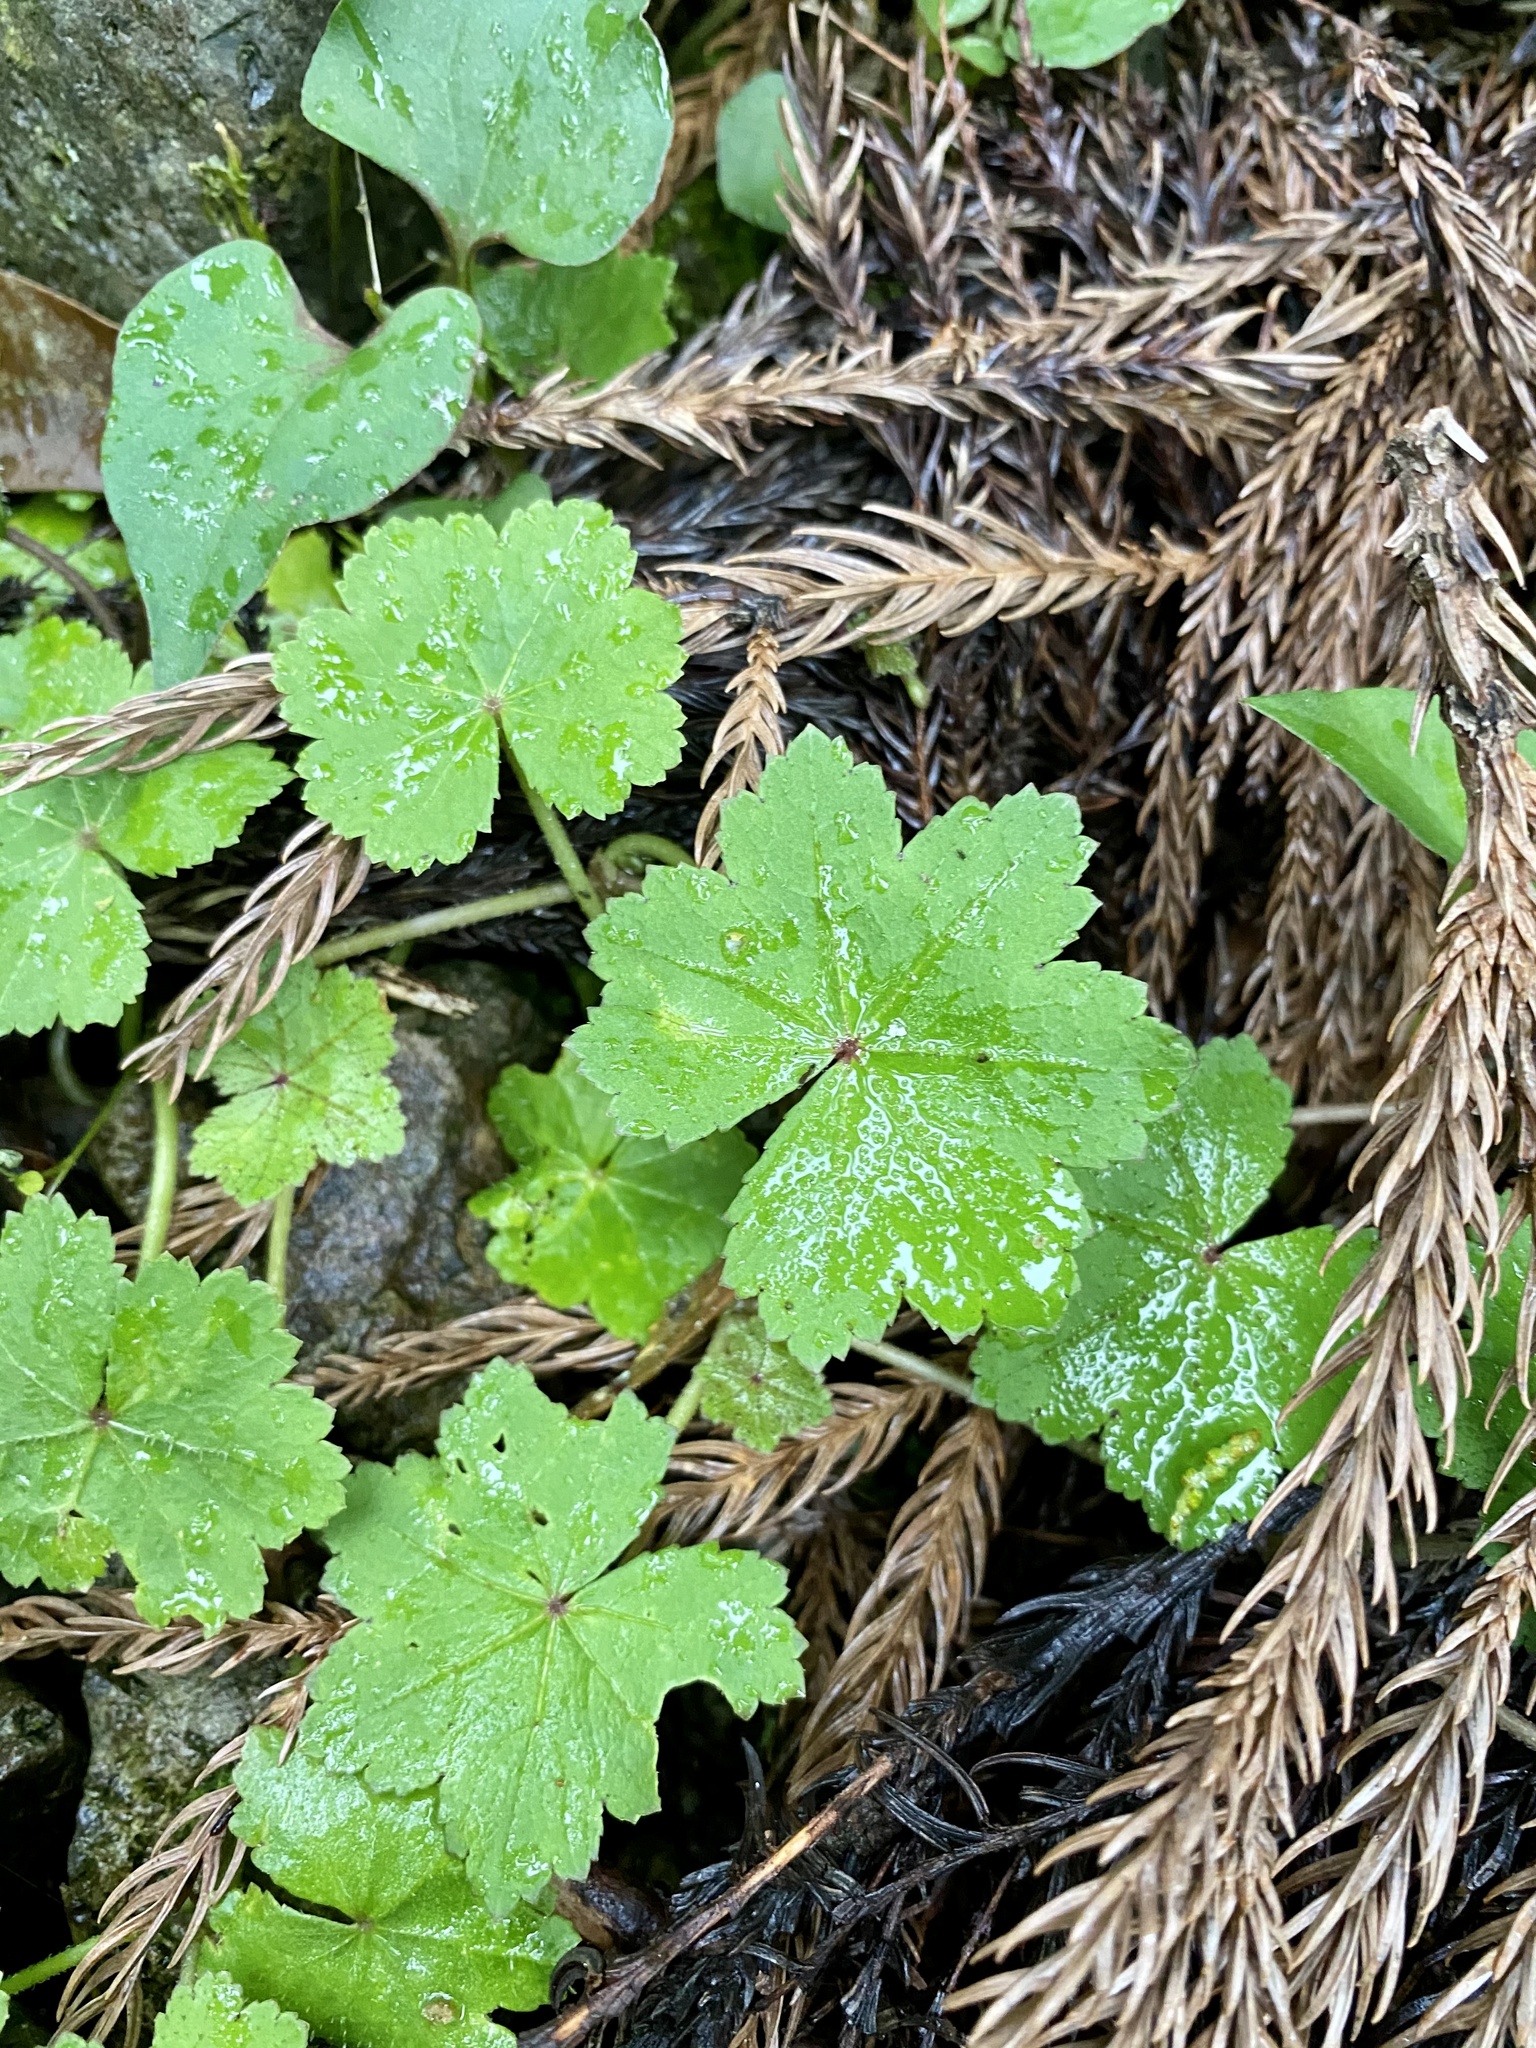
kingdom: Plantae
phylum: Tracheophyta
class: Magnoliopsida
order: Apiales
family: Araliaceae
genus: Hydrocotyle
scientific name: Hydrocotyle nepalensis
